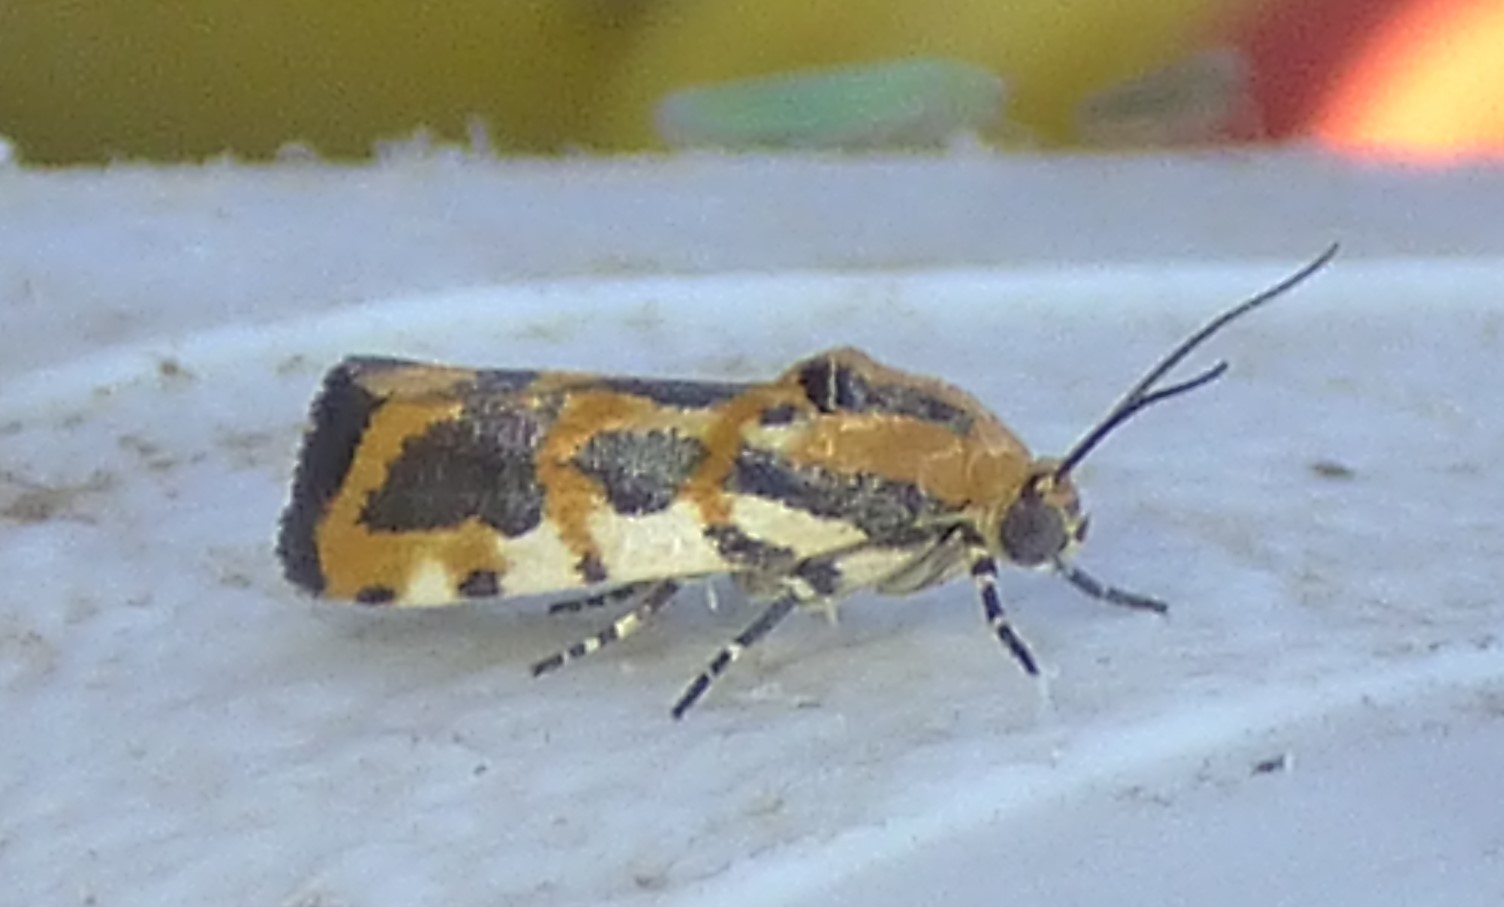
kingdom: Animalia
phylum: Arthropoda
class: Insecta
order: Lepidoptera
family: Noctuidae
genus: Acontia
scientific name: Acontia leo
